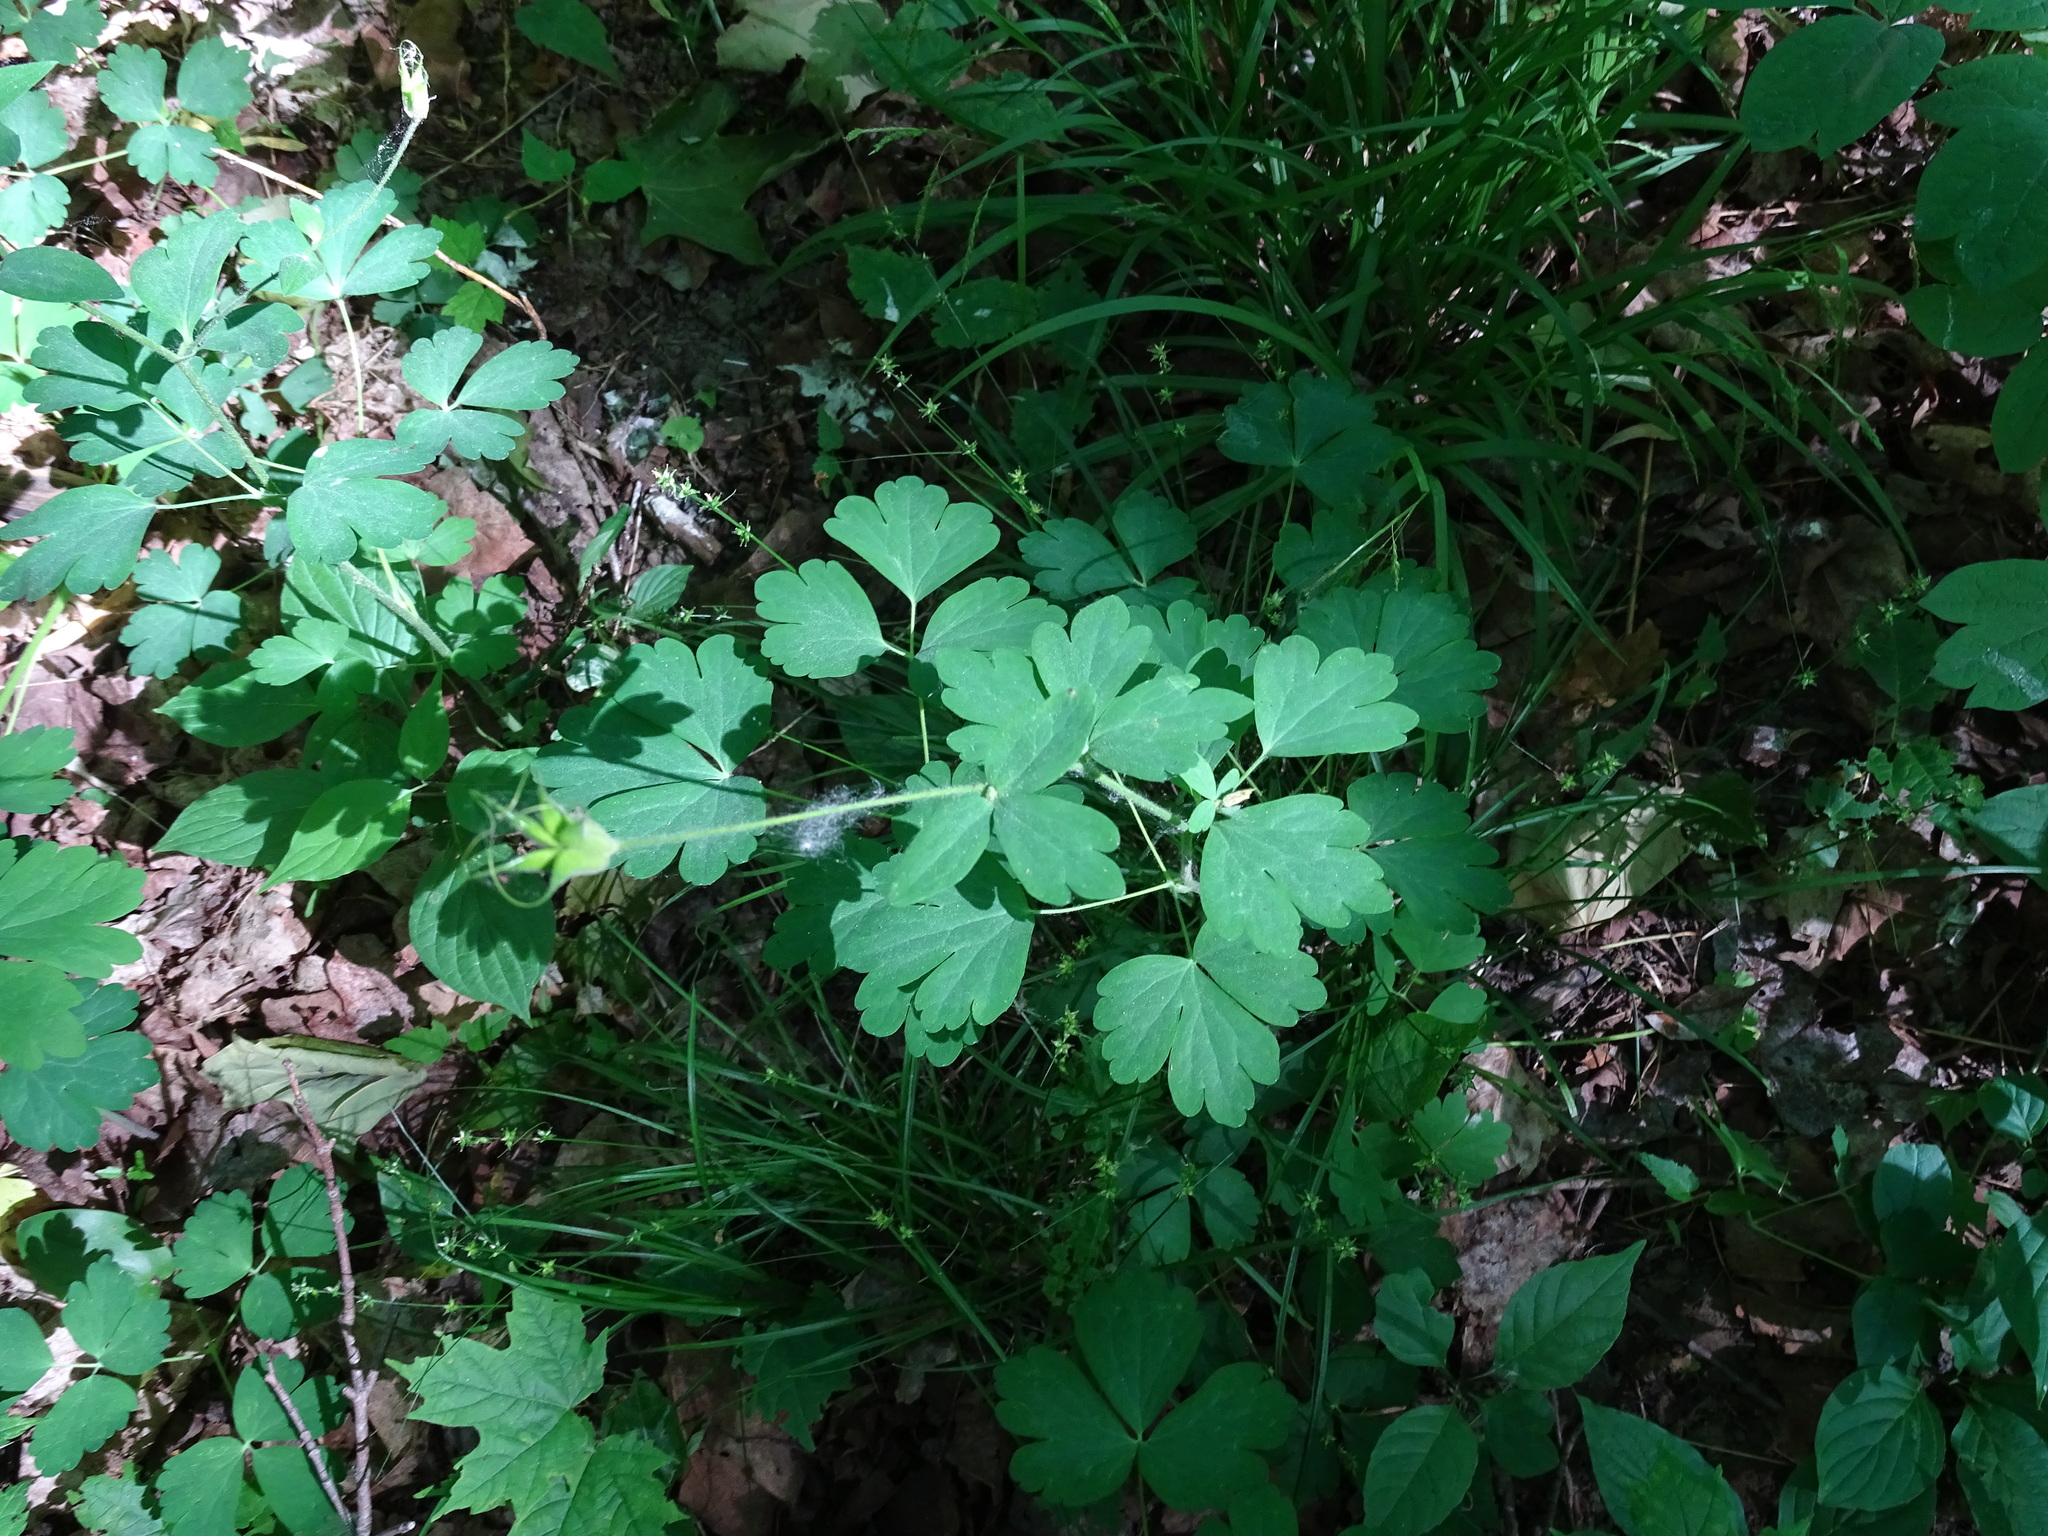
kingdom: Plantae
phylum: Tracheophyta
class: Magnoliopsida
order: Ranunculales
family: Ranunculaceae
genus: Aquilegia
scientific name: Aquilegia canadensis
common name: American columbine
